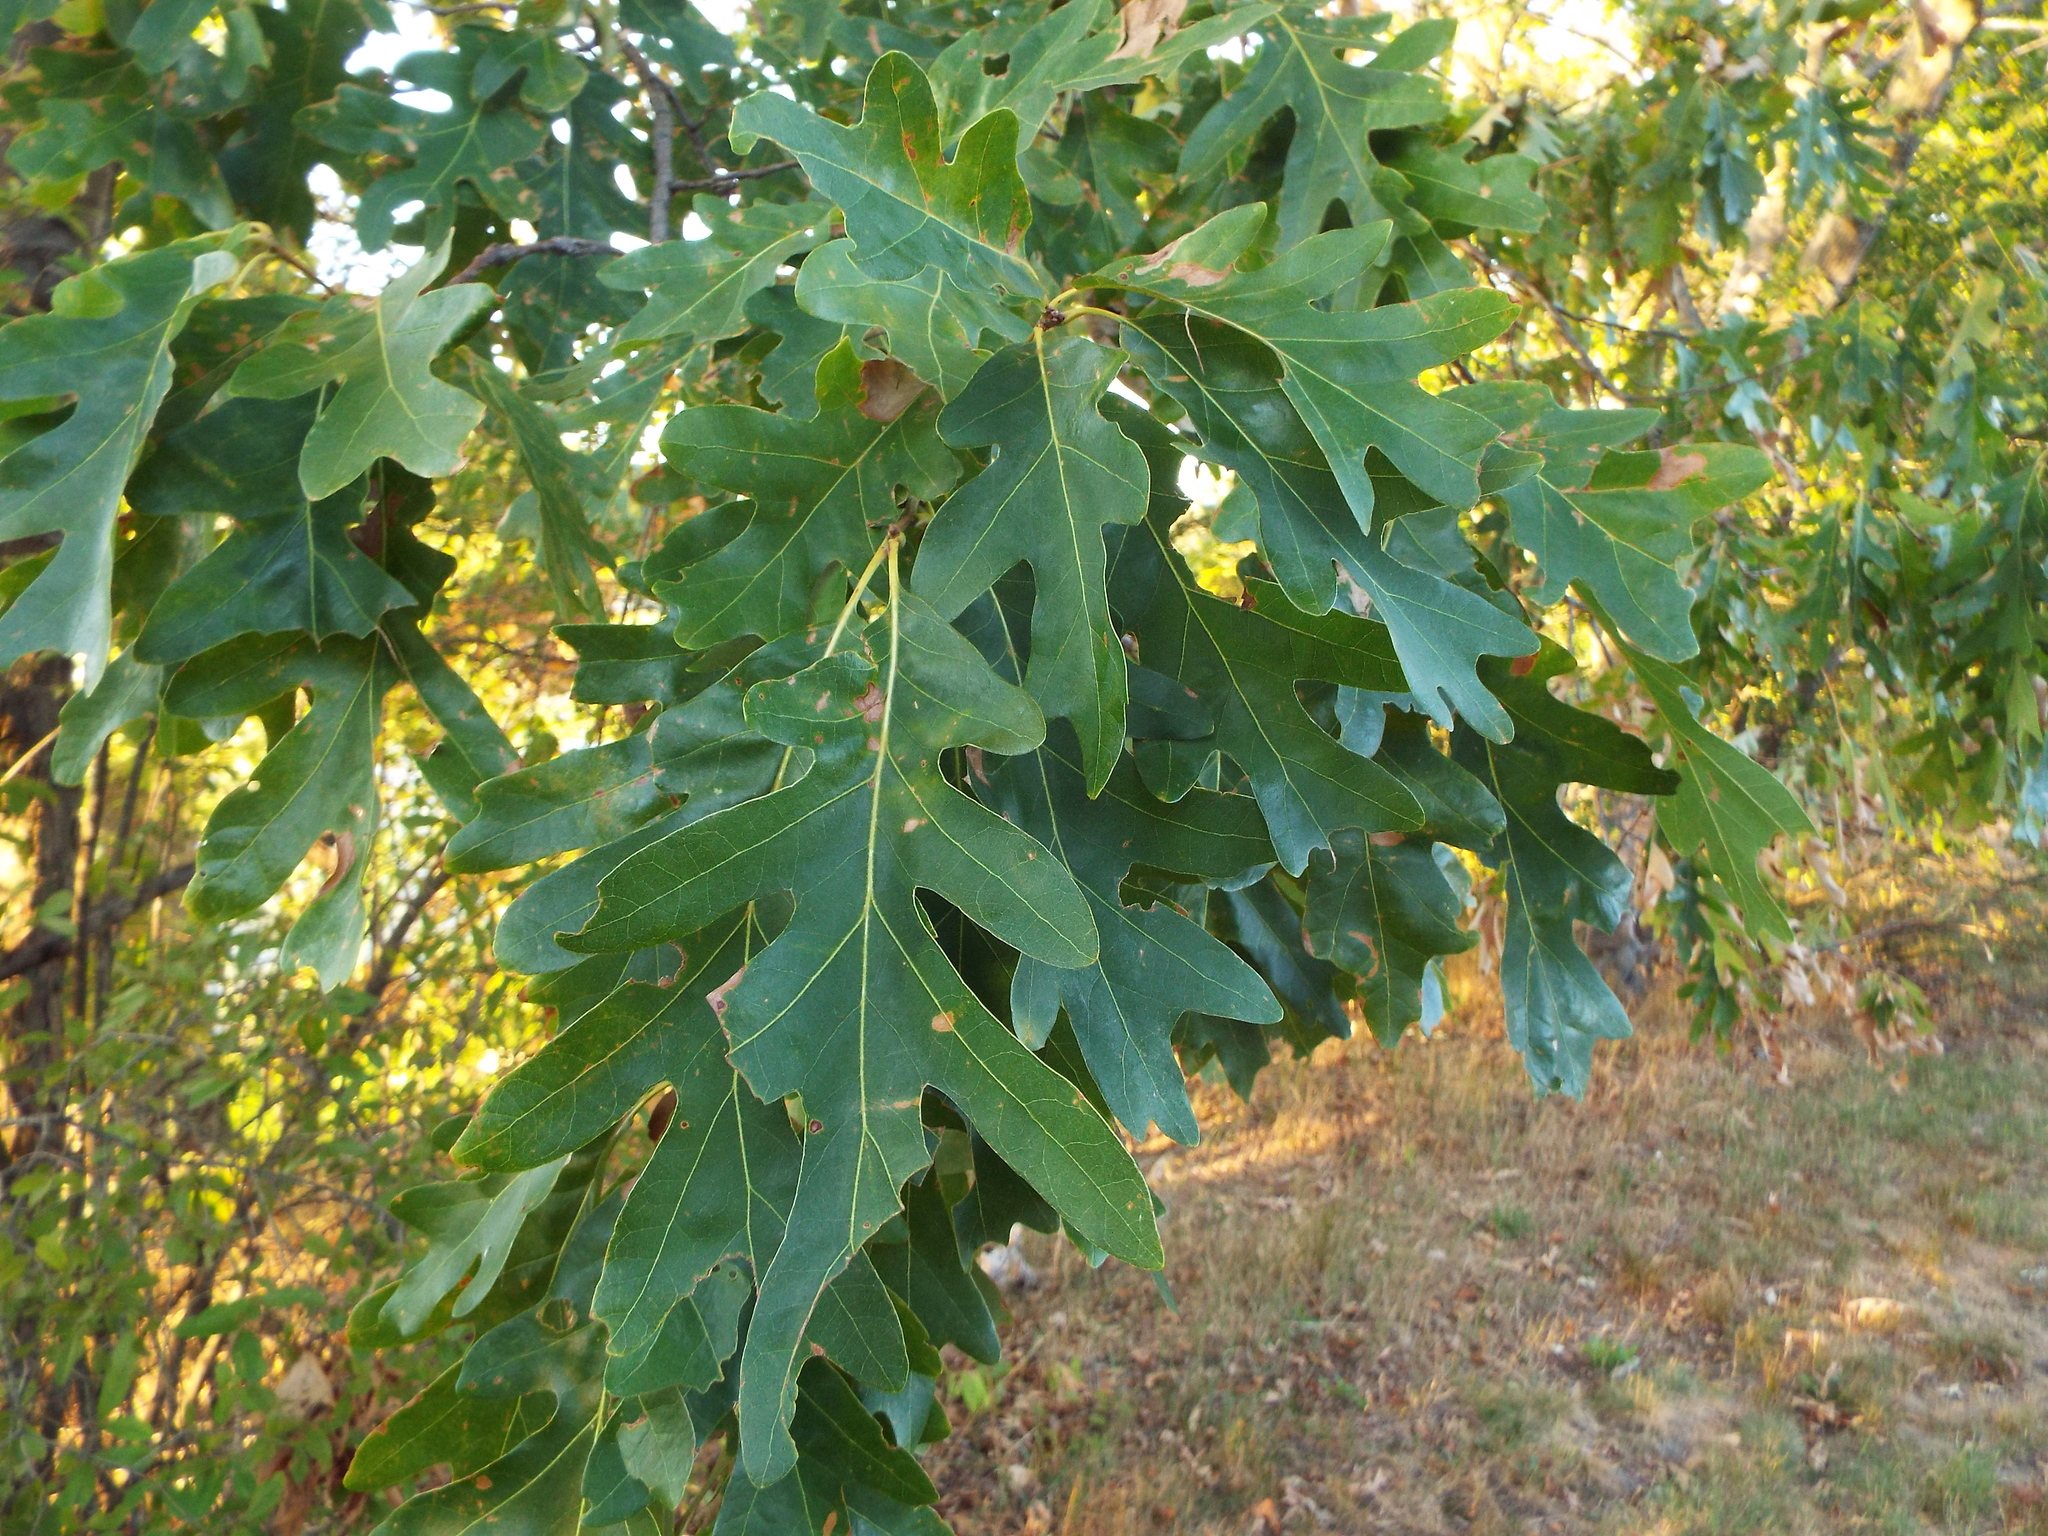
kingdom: Plantae
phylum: Tracheophyta
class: Magnoliopsida
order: Fagales
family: Fagaceae
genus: Quercus
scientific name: Quercus alba
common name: White oak
